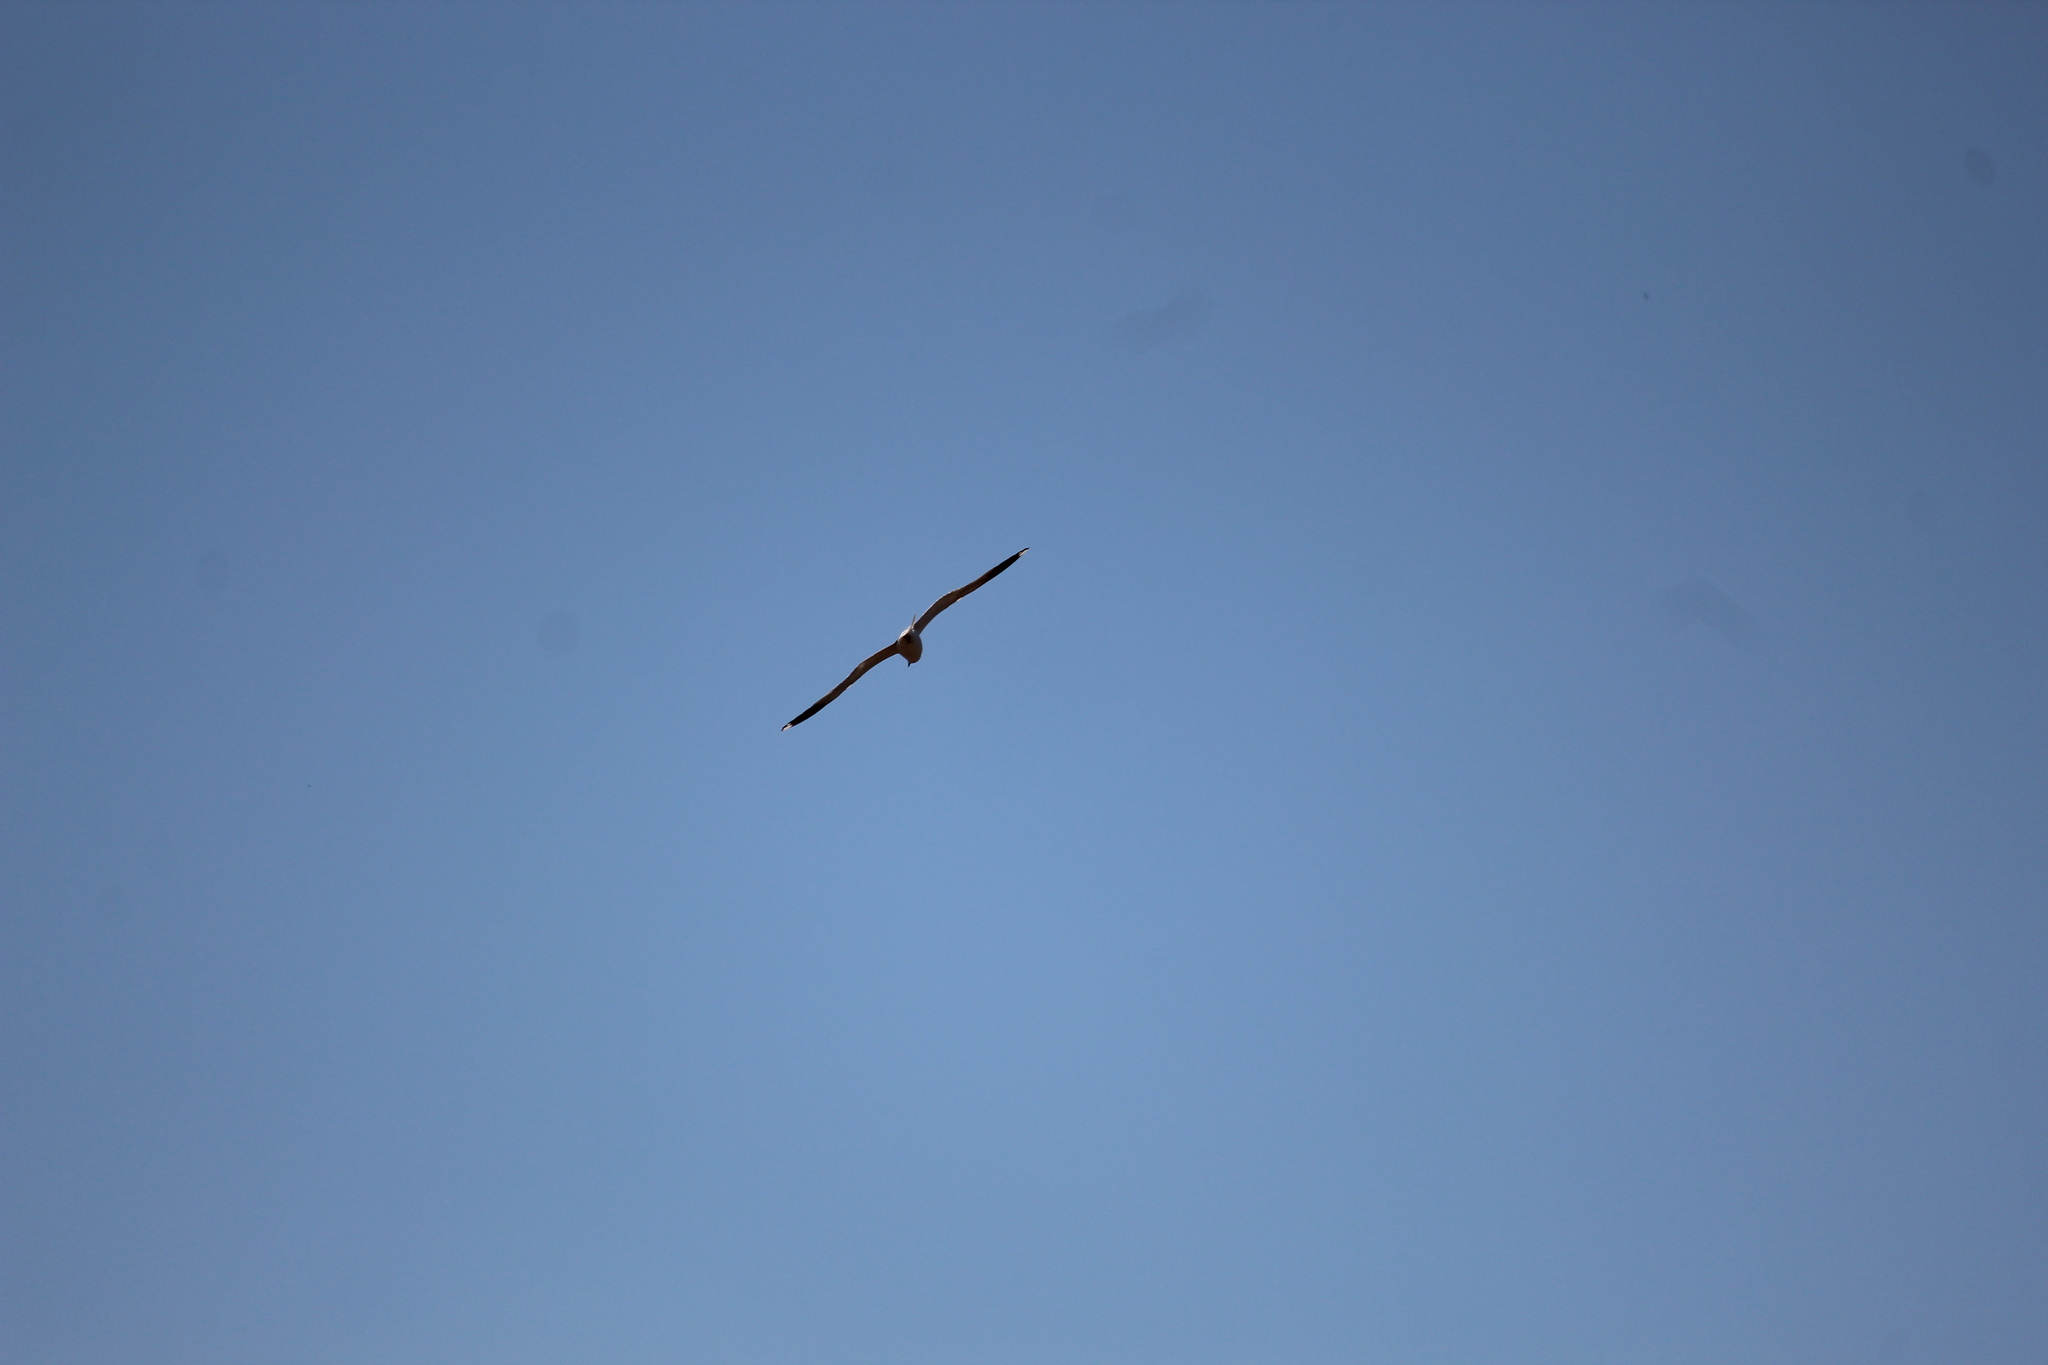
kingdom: Animalia
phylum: Chordata
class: Aves
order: Charadriiformes
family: Laridae
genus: Larus
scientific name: Larus canus
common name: Mew gull
